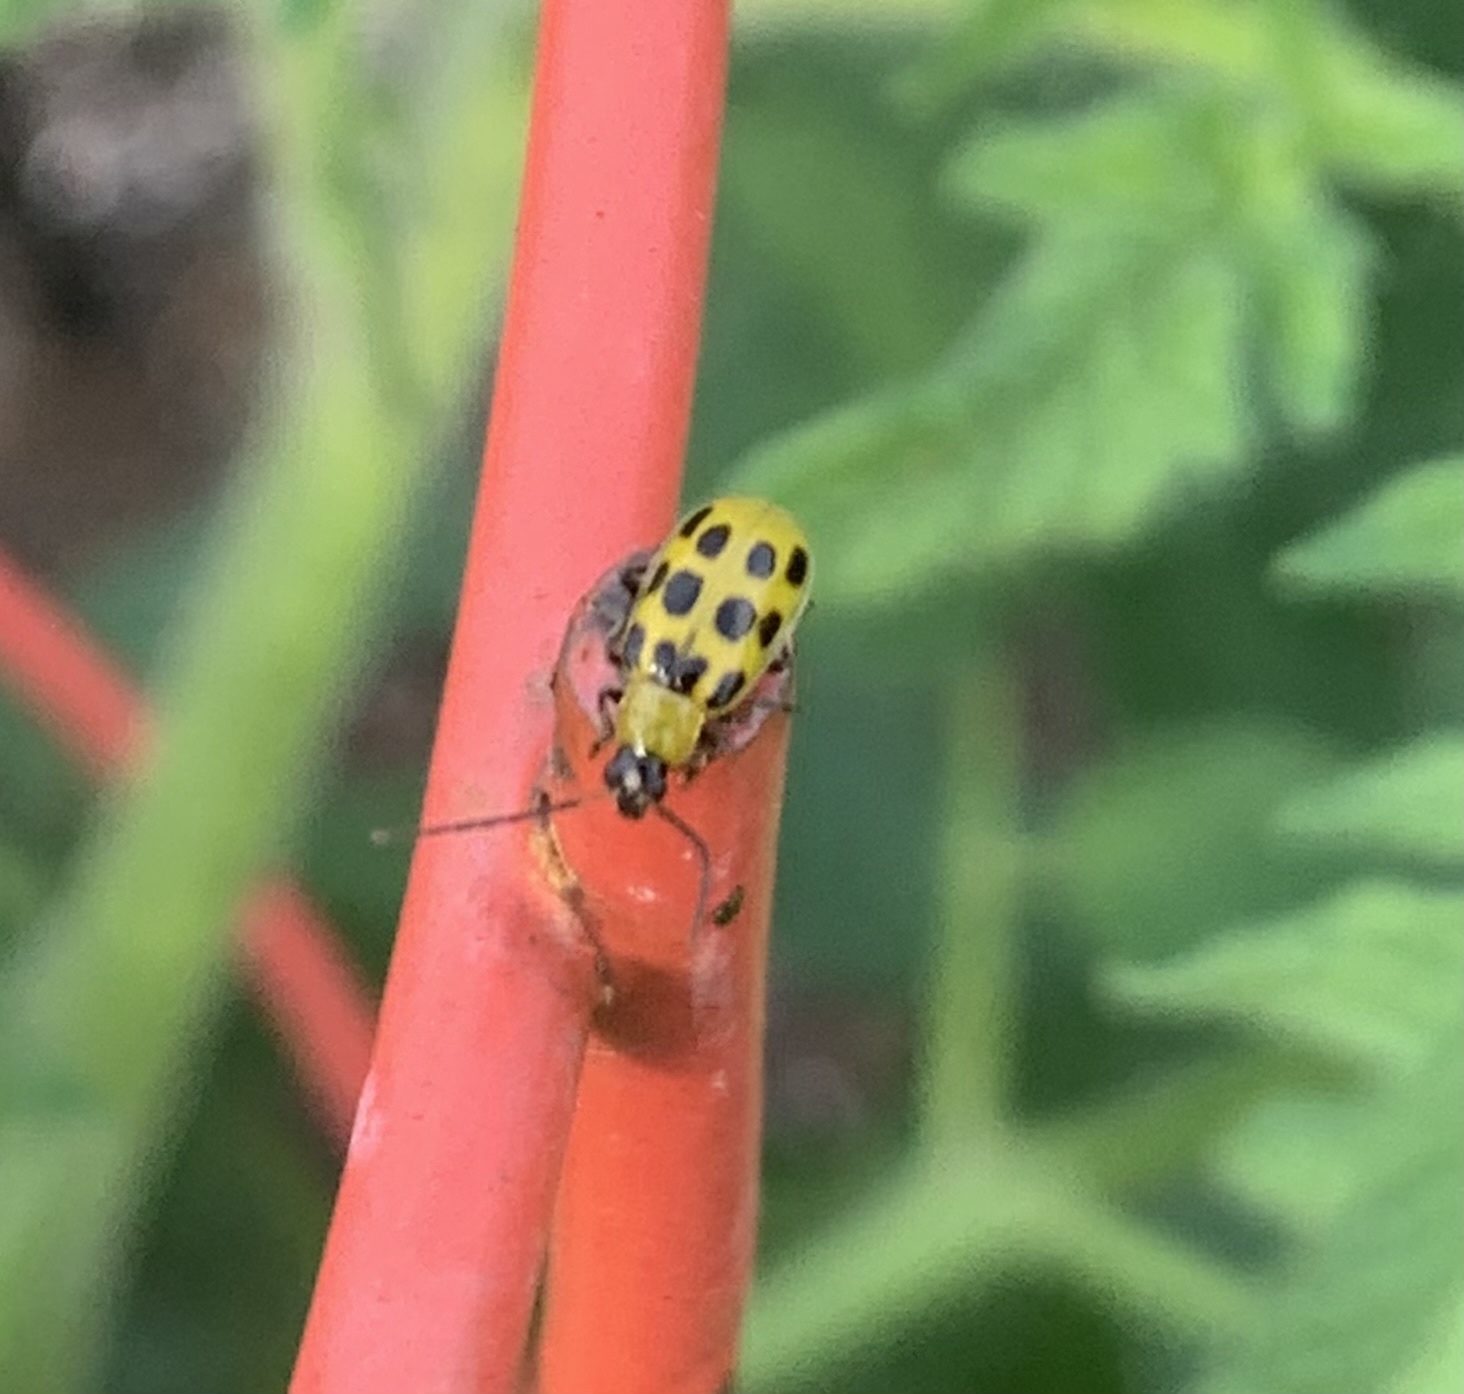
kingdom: Animalia
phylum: Arthropoda
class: Insecta
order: Coleoptera
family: Chrysomelidae
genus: Diabrotica
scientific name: Diabrotica undecimpunctata
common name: Spotted cucumber beetle
